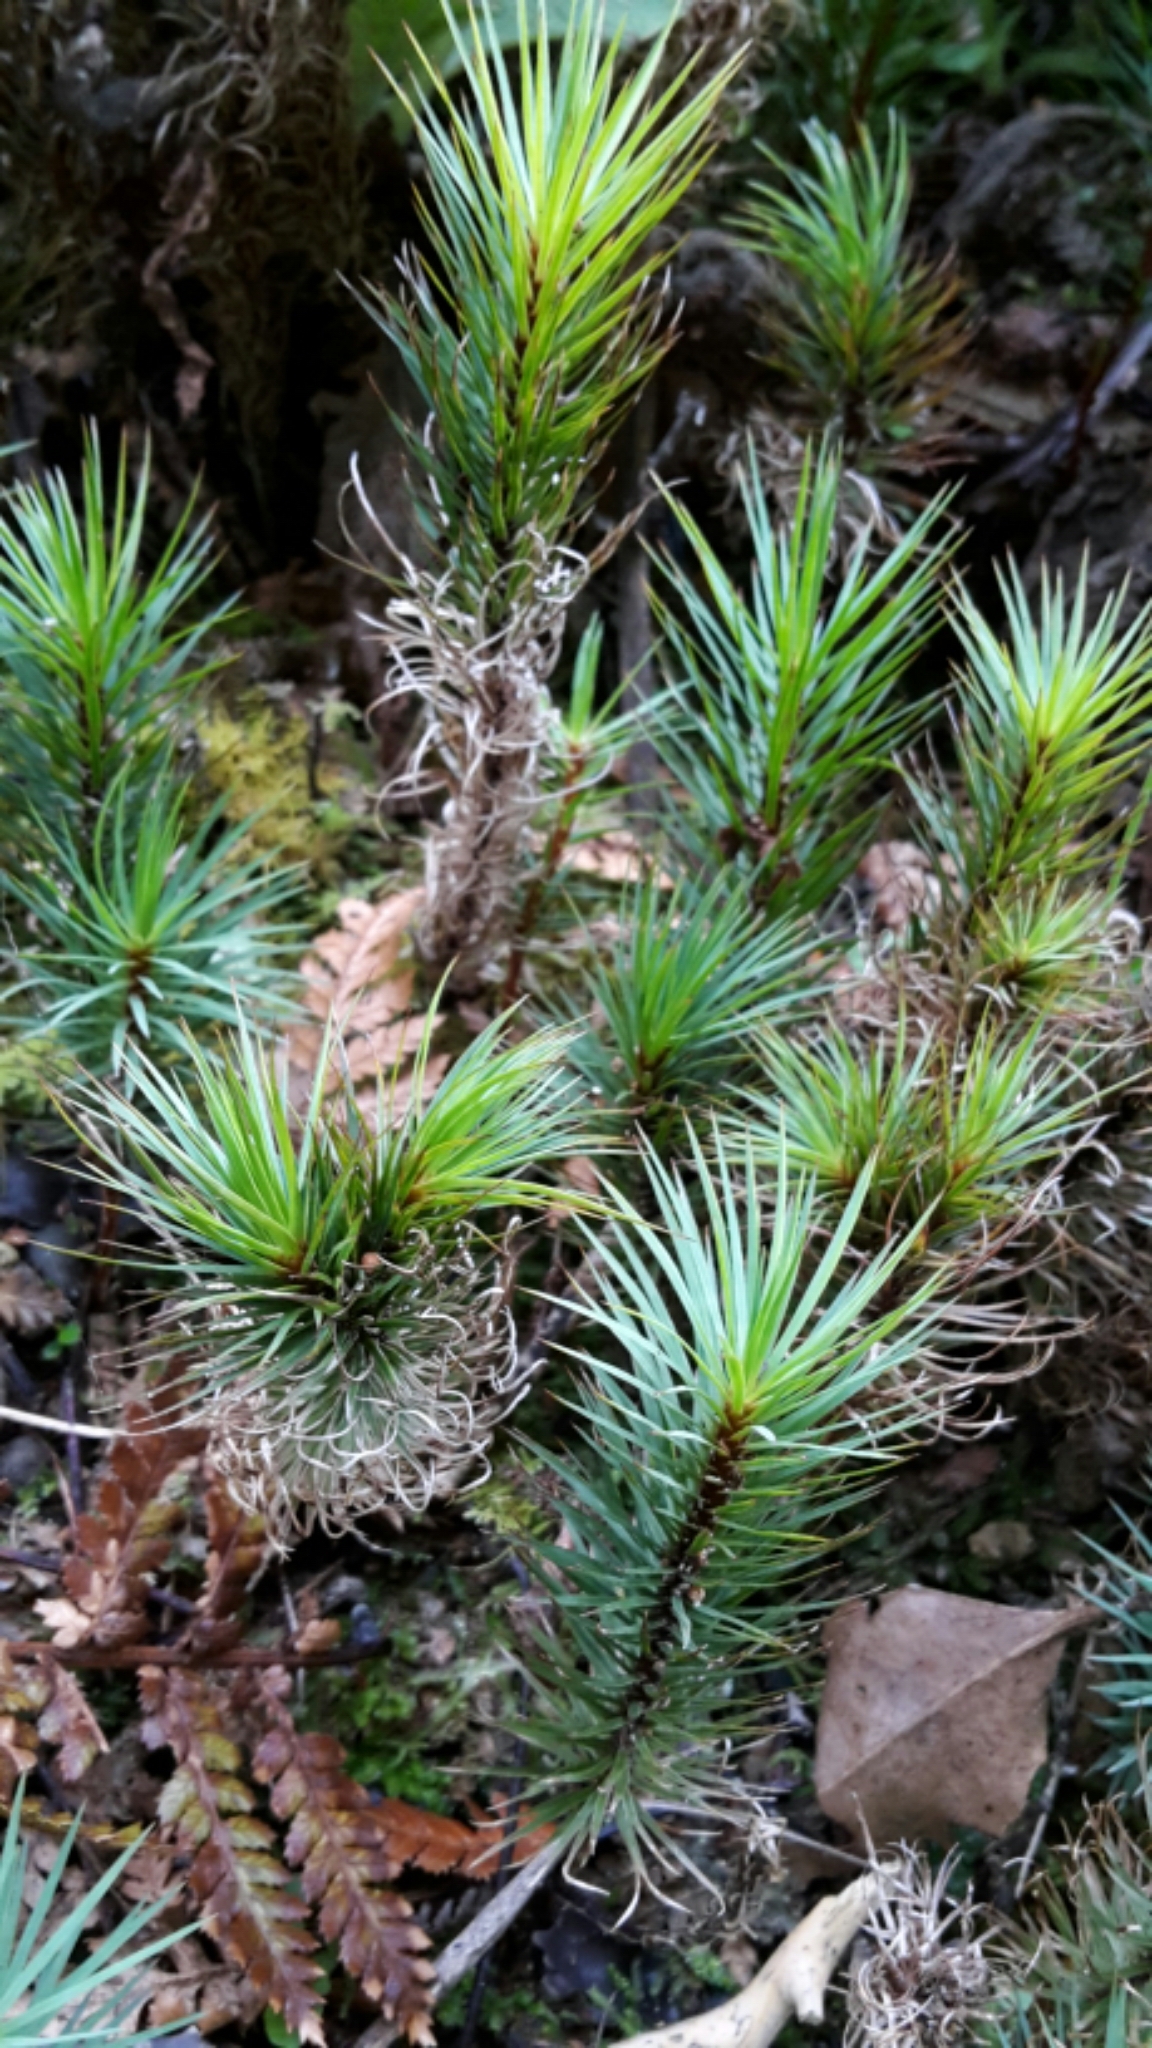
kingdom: Plantae
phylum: Bryophyta
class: Polytrichopsida
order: Polytrichales
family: Polytrichaceae
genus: Dawsonia
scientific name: Dawsonia superba
